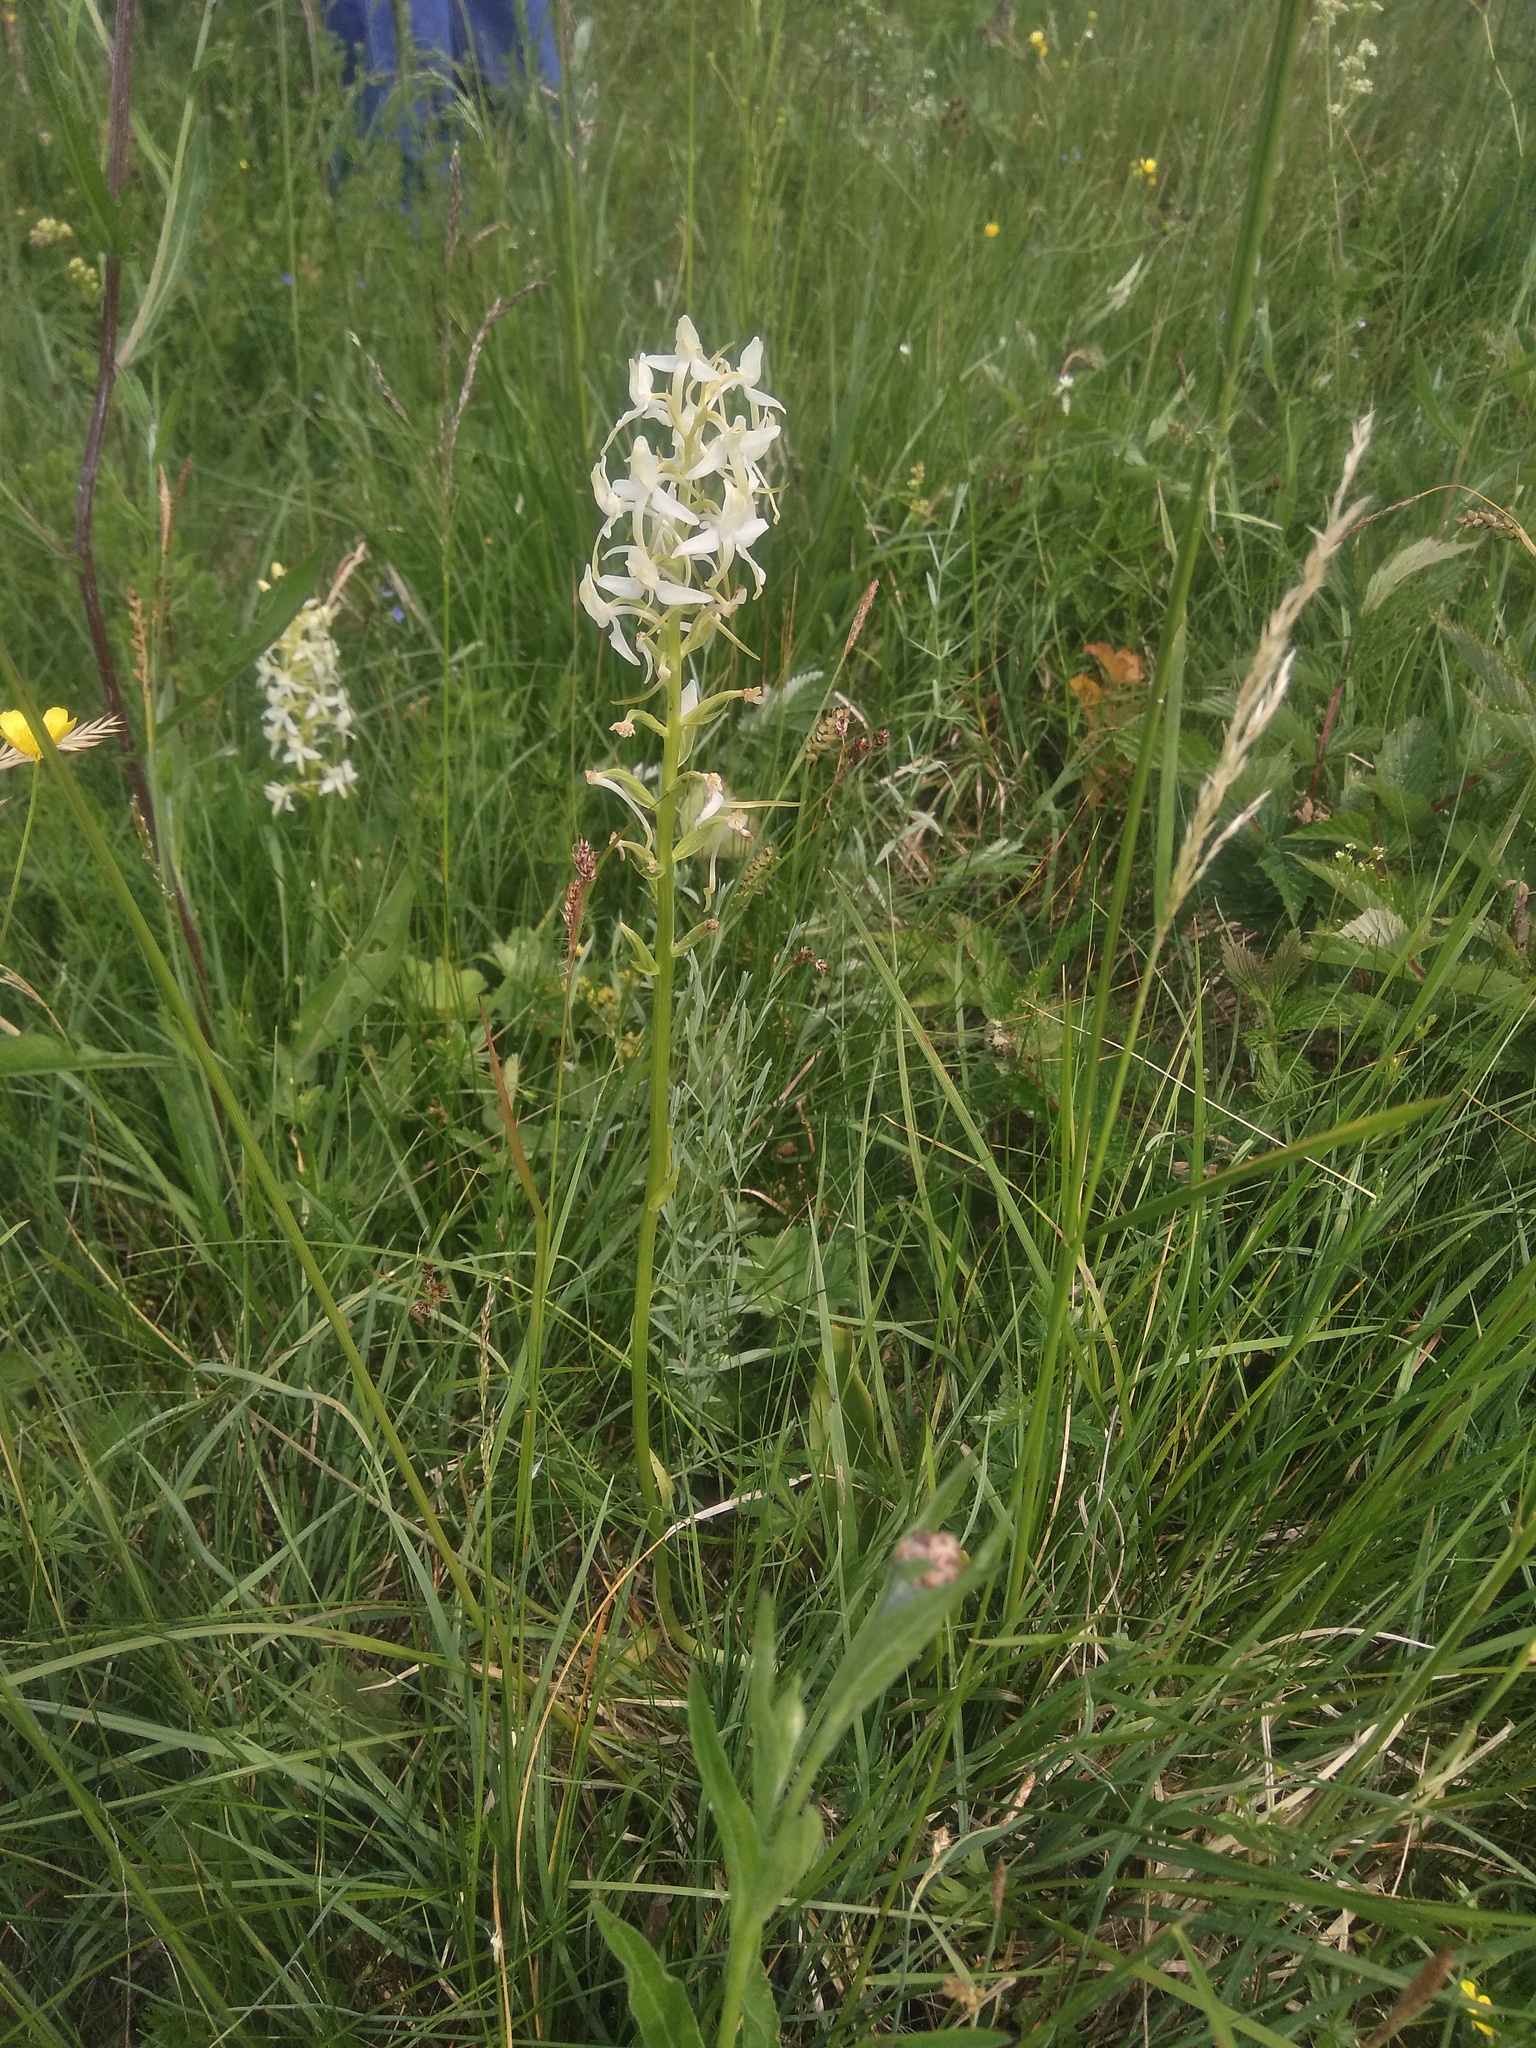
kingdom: Plantae
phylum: Tracheophyta
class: Liliopsida
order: Asparagales
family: Orchidaceae
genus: Platanthera
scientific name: Platanthera bifolia
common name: Lesser butterfly-orchid
